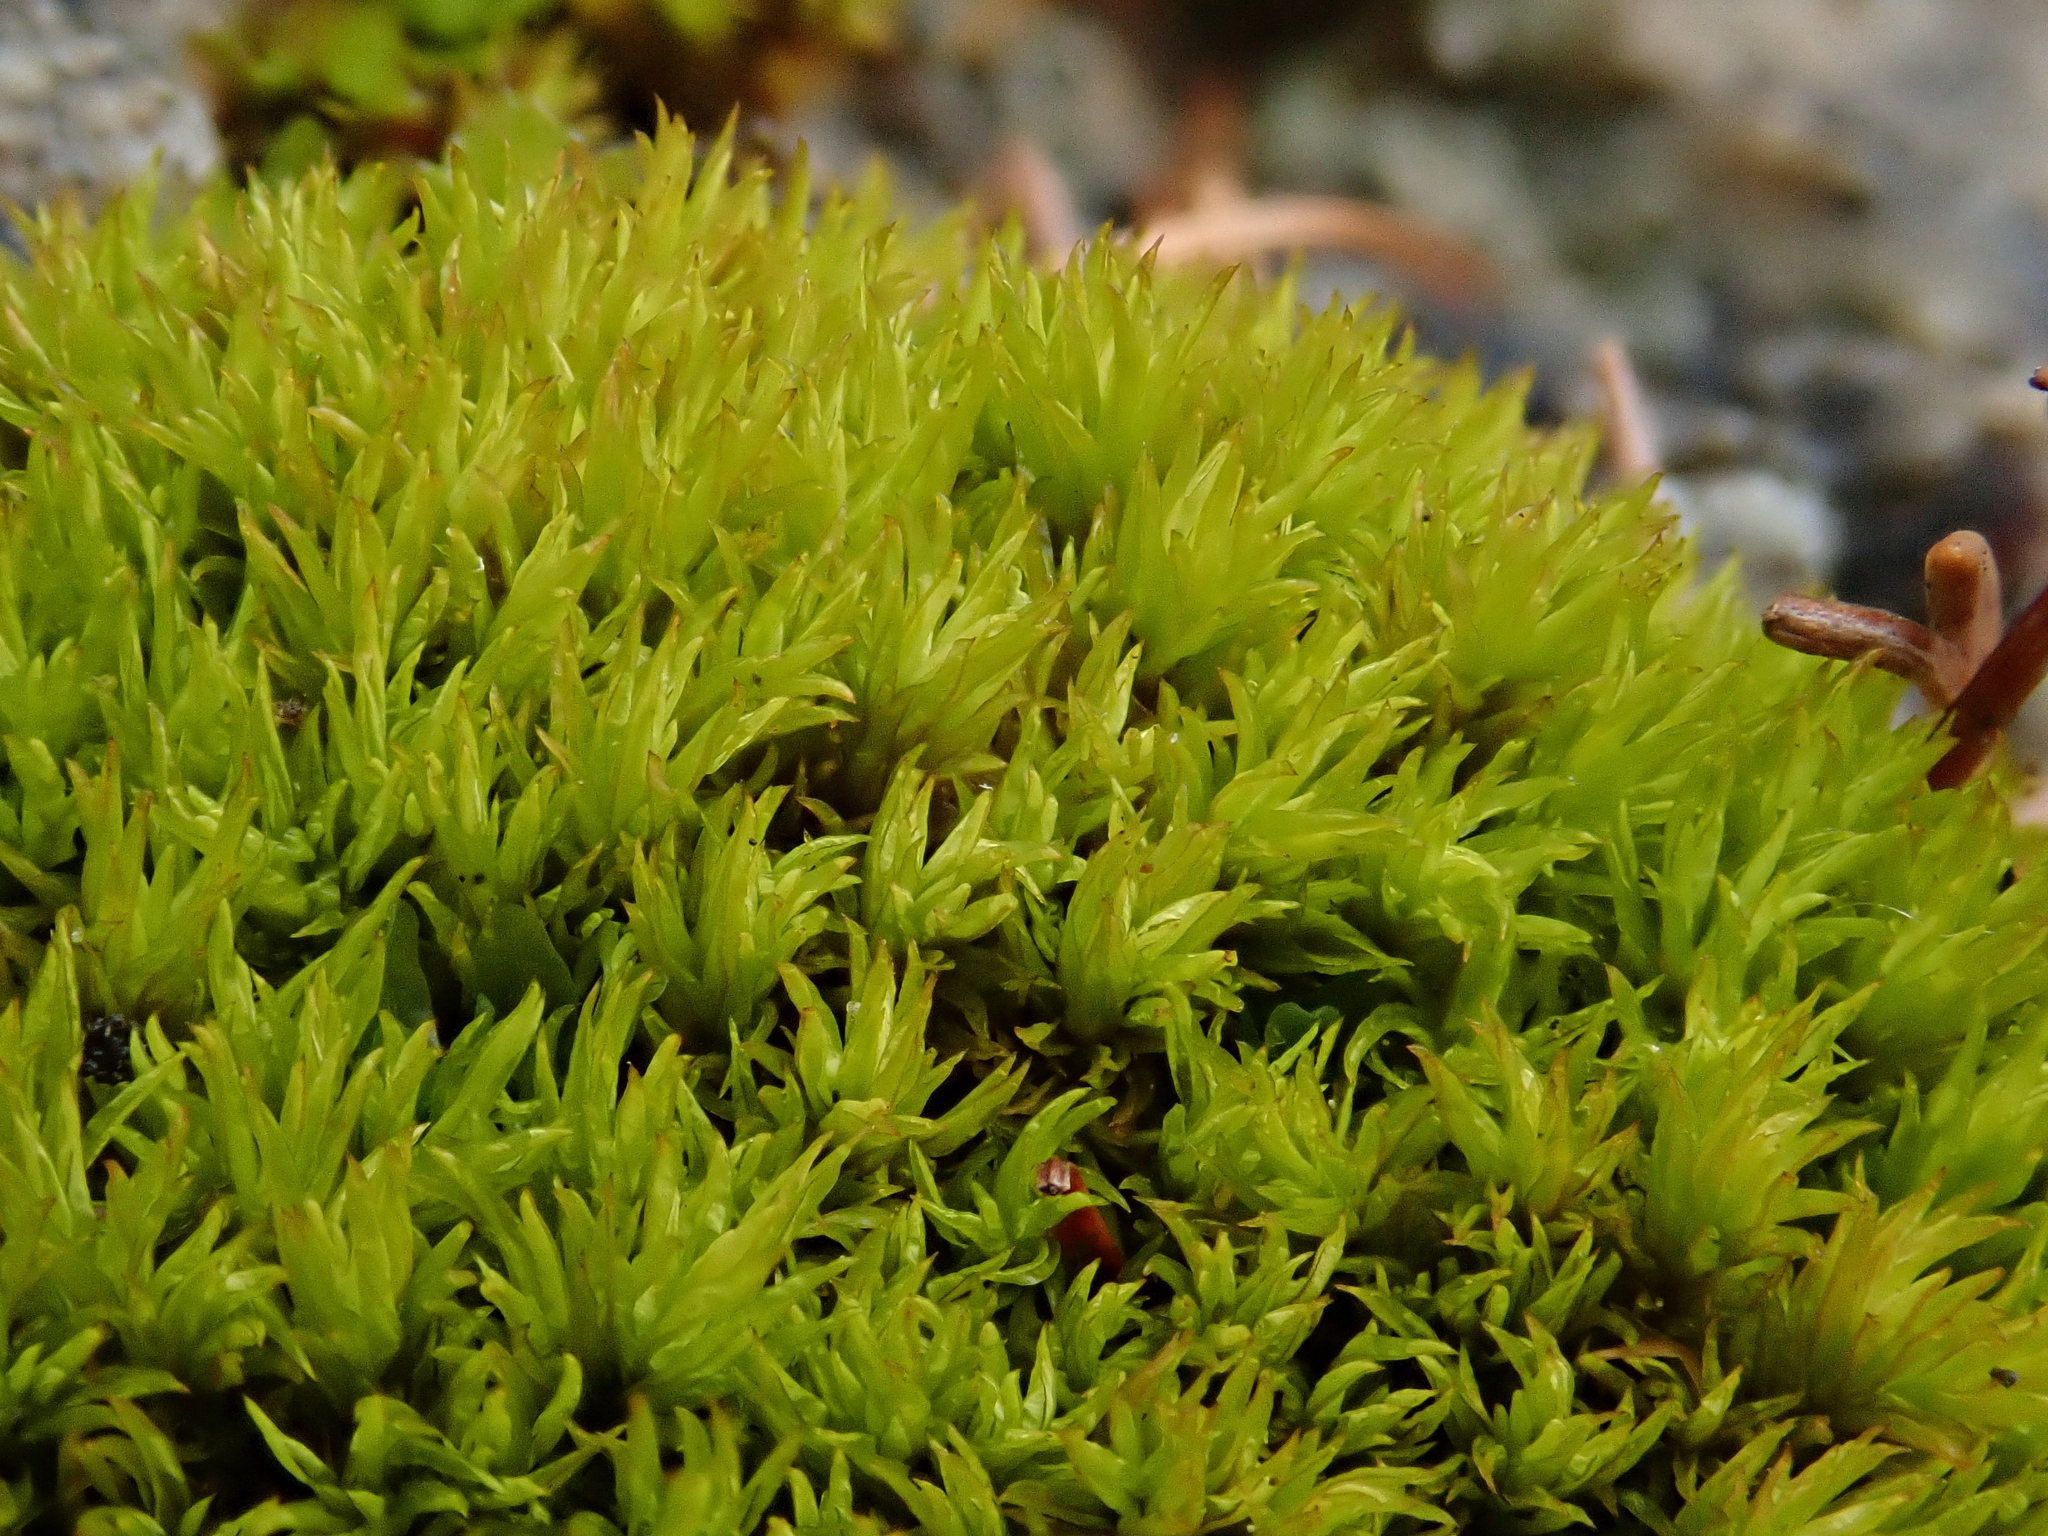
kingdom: Plantae
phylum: Bryophyta
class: Bryopsida
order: Pottiales
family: Pottiaceae
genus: Tortella
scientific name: Tortella inclinata
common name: Inclined twisted moss
